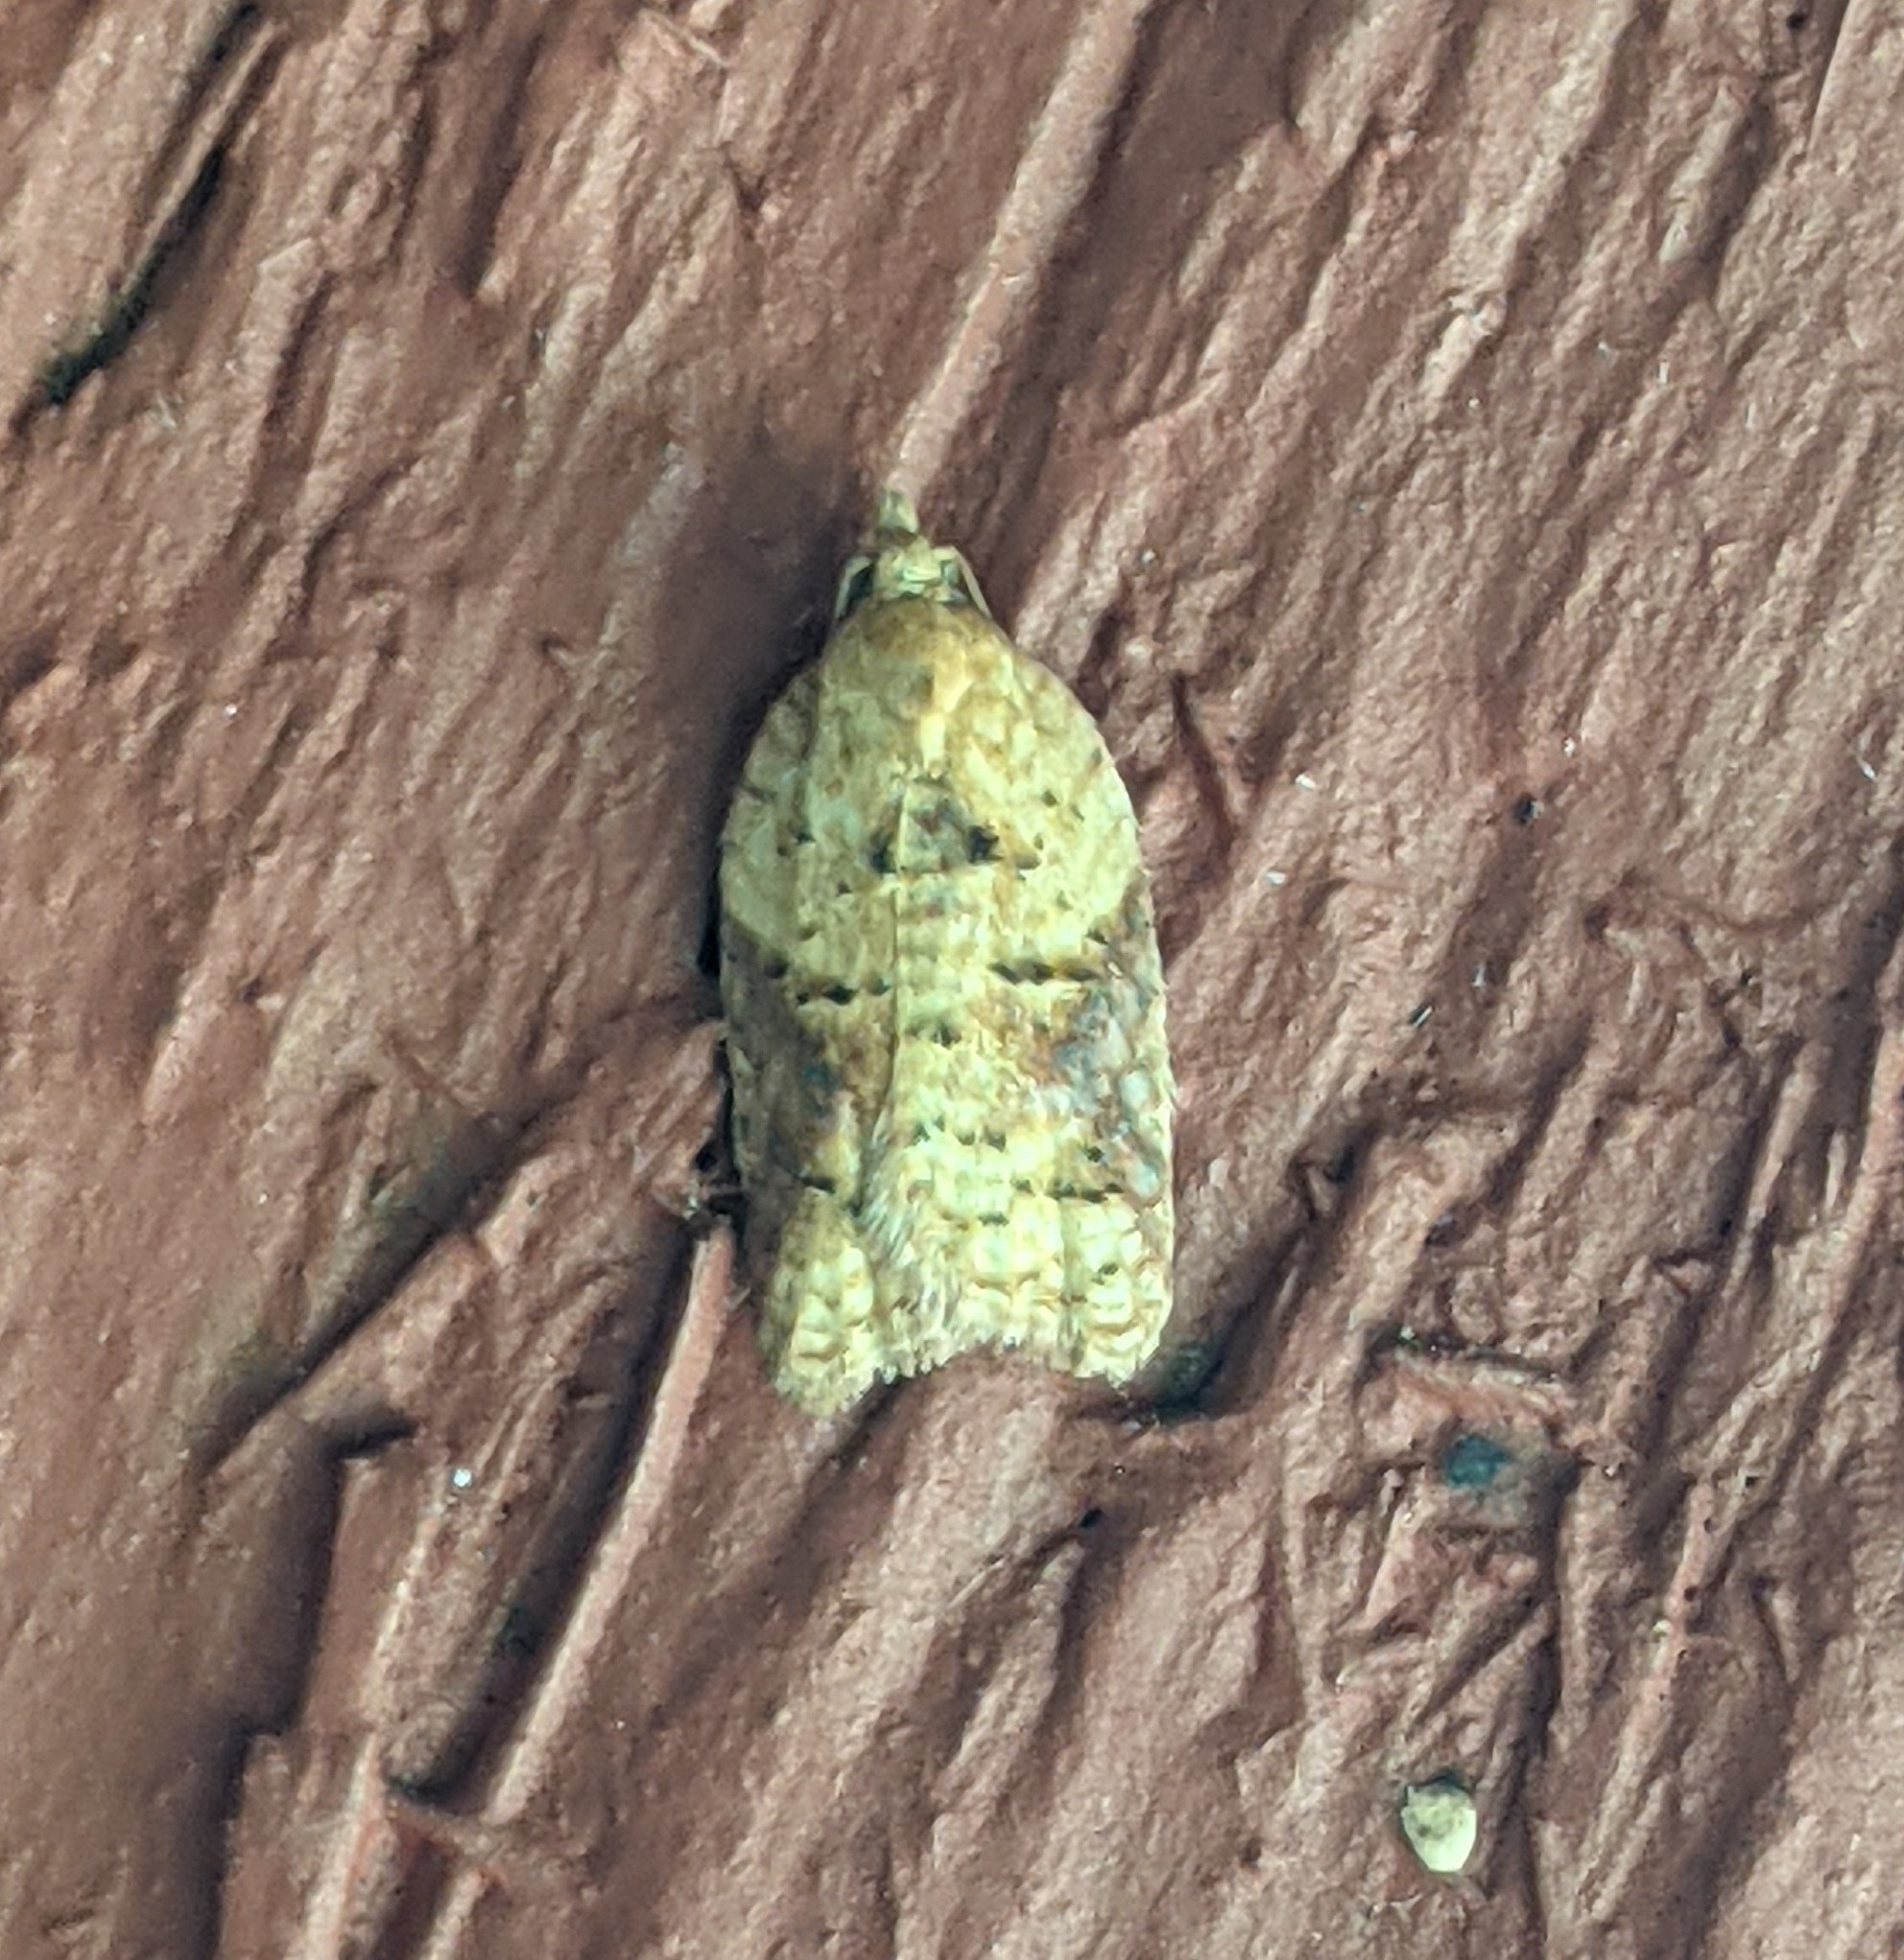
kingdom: Animalia
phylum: Arthropoda
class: Insecta
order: Lepidoptera
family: Tortricidae
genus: Acleris
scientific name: Acleris britannia
